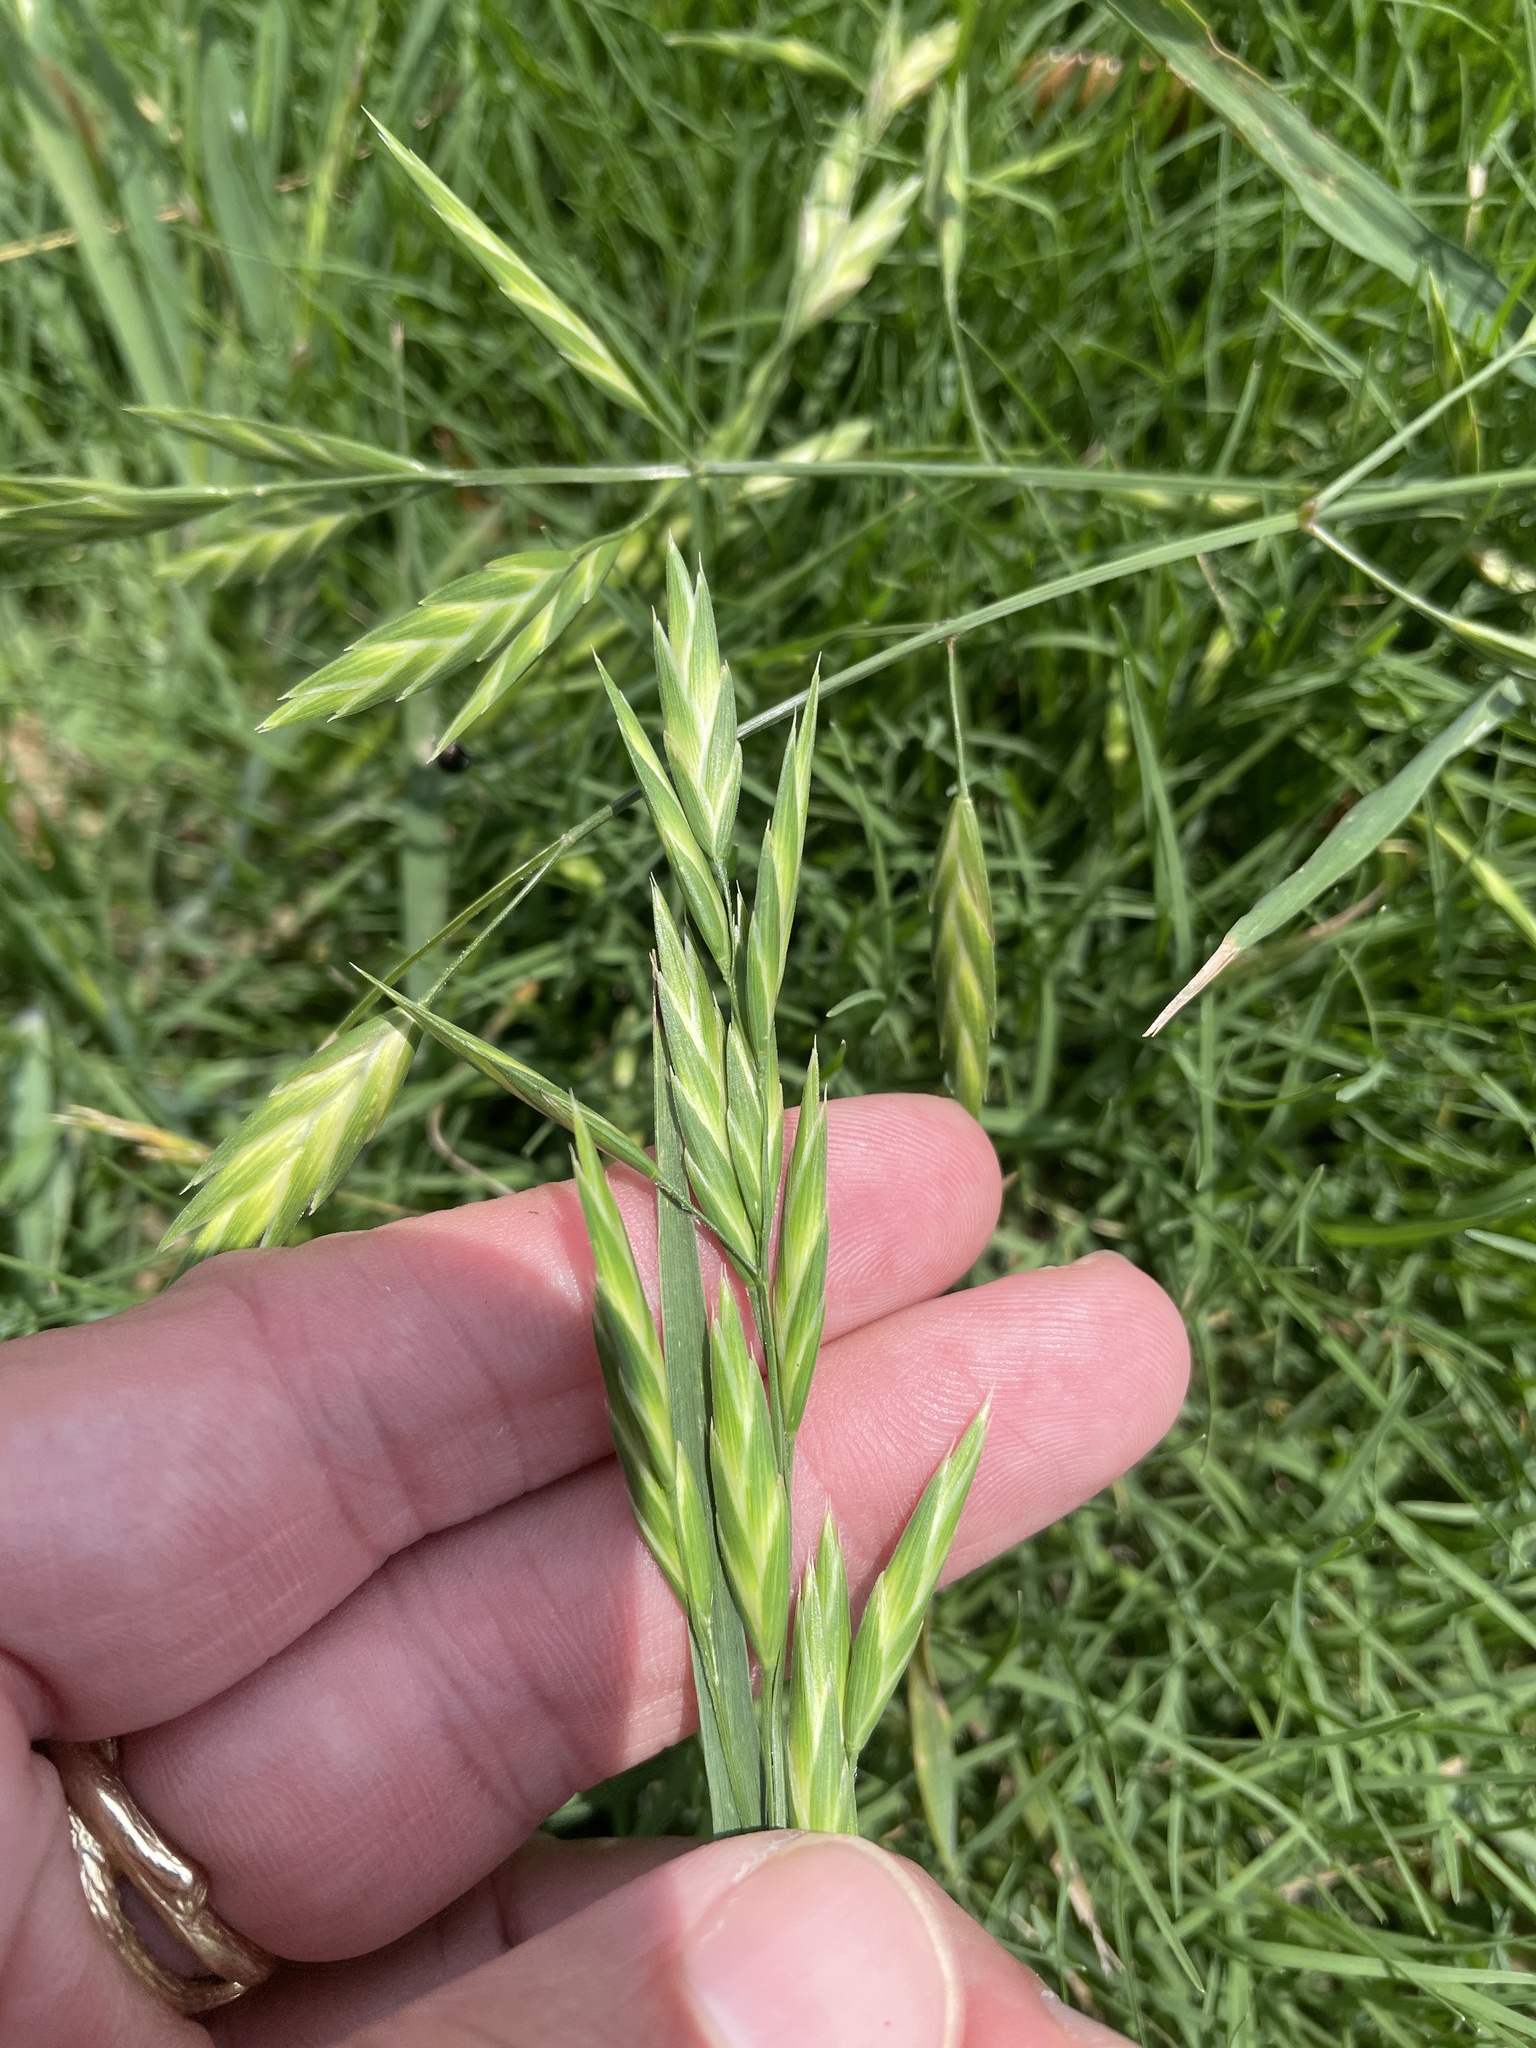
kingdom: Plantae
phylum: Tracheophyta
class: Liliopsida
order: Poales
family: Poaceae
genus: Bromus
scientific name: Bromus catharticus
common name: Rescuegrass
